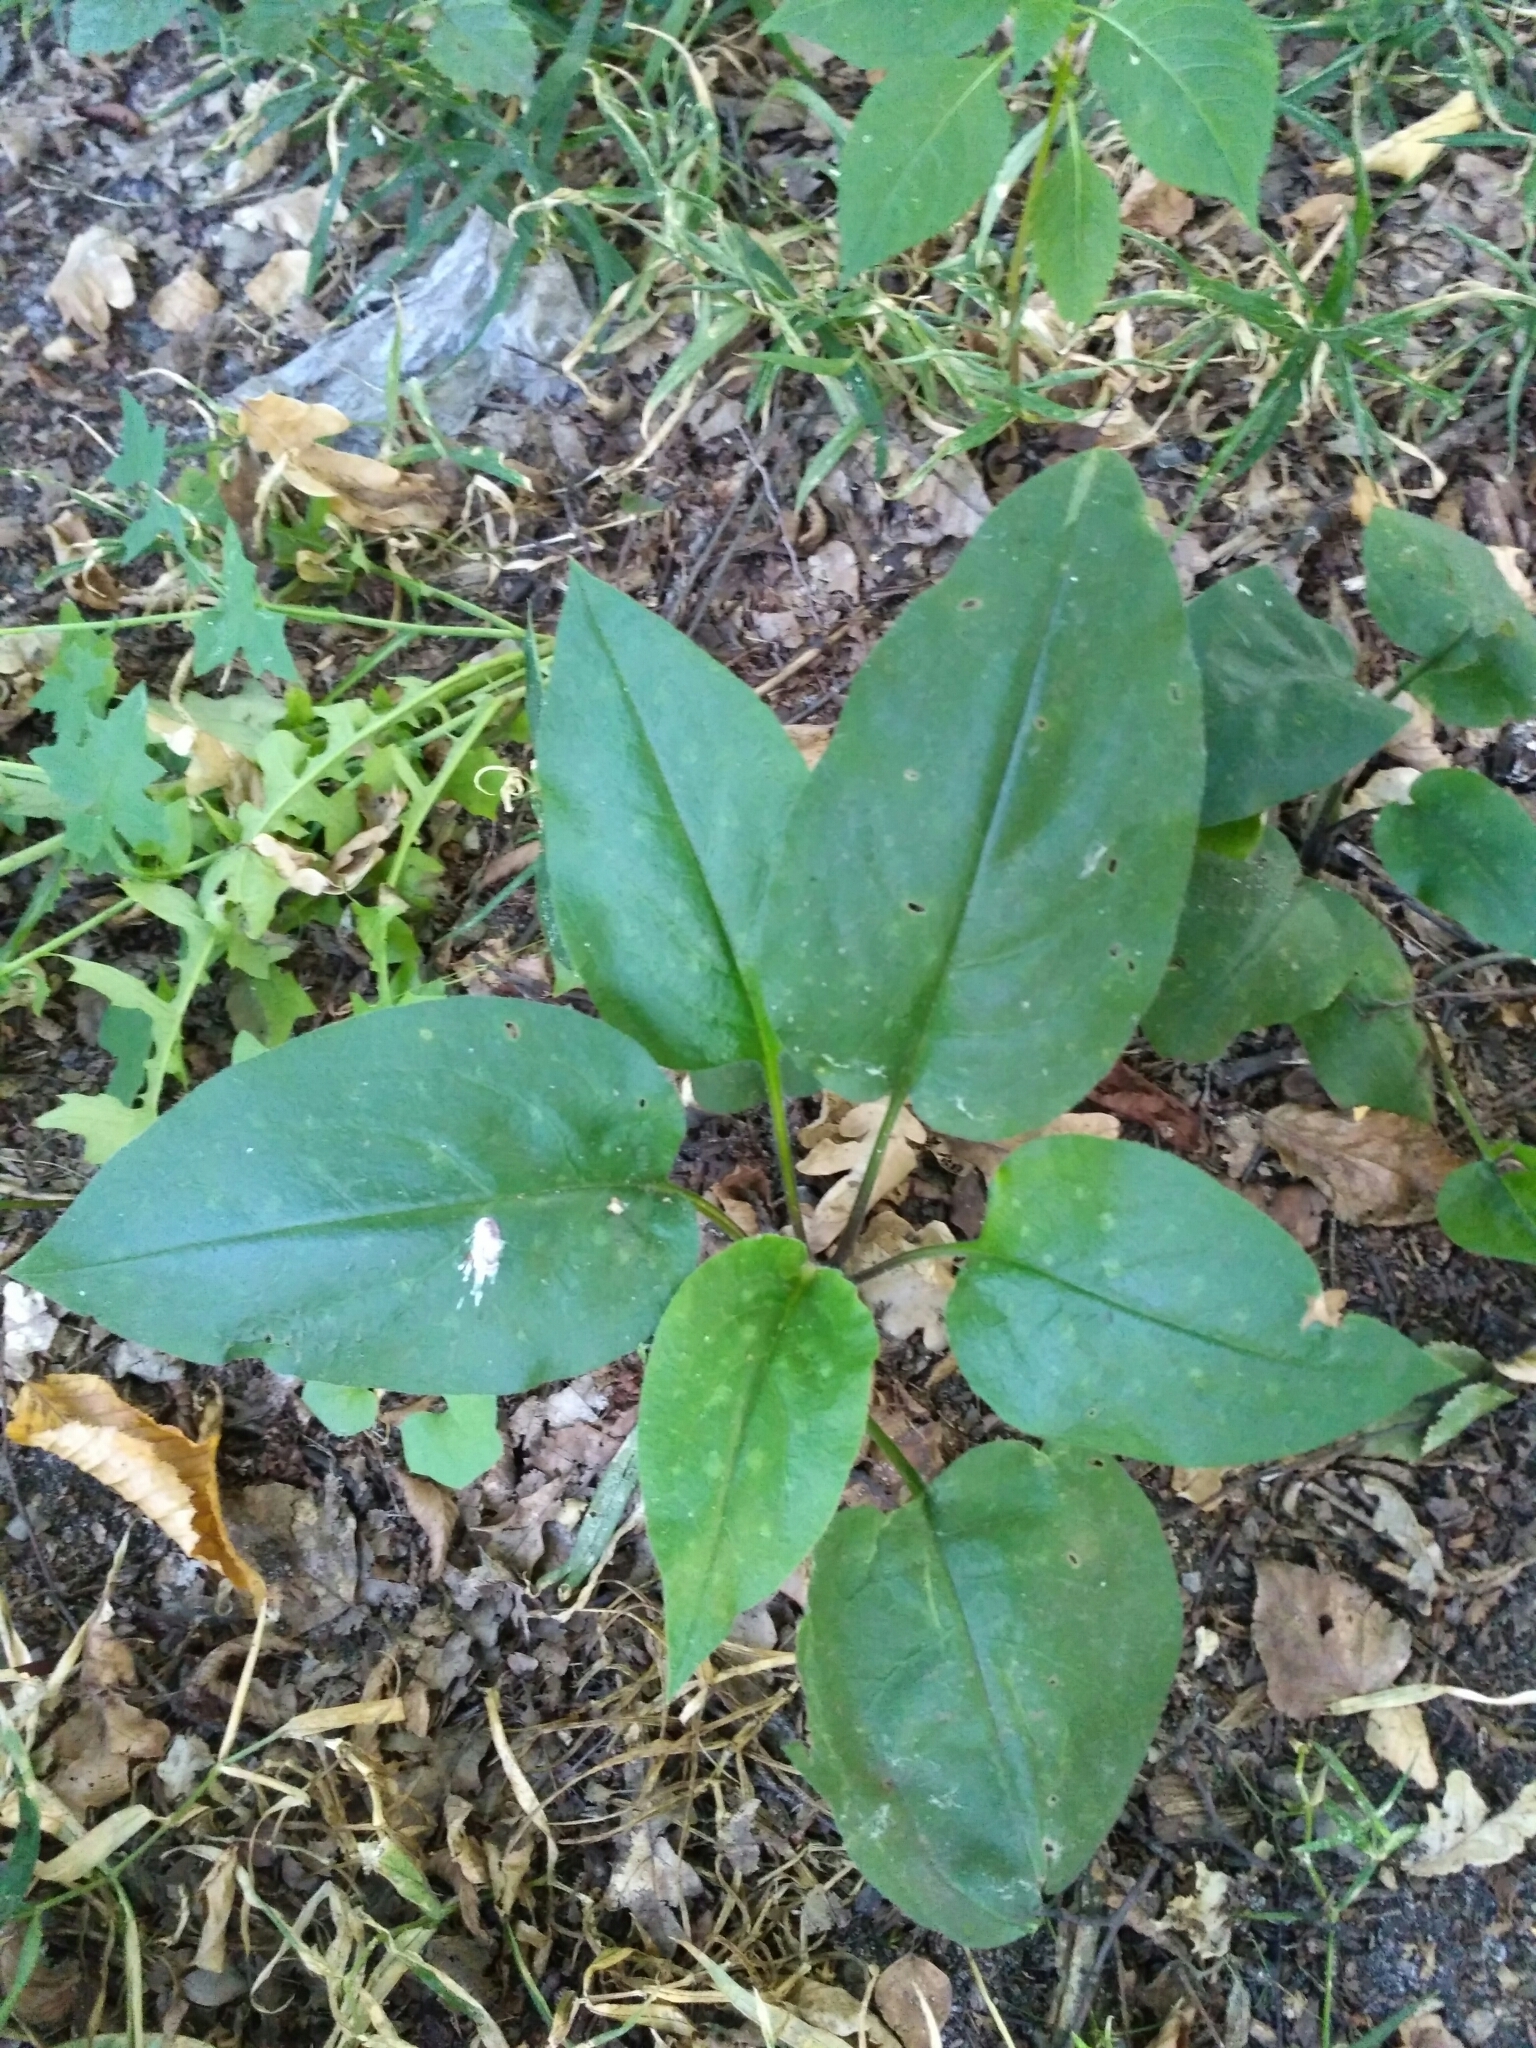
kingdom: Plantae
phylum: Tracheophyta
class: Magnoliopsida
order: Boraginales
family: Boraginaceae
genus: Pulmonaria
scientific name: Pulmonaria obscura
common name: Suffolk lungwort
